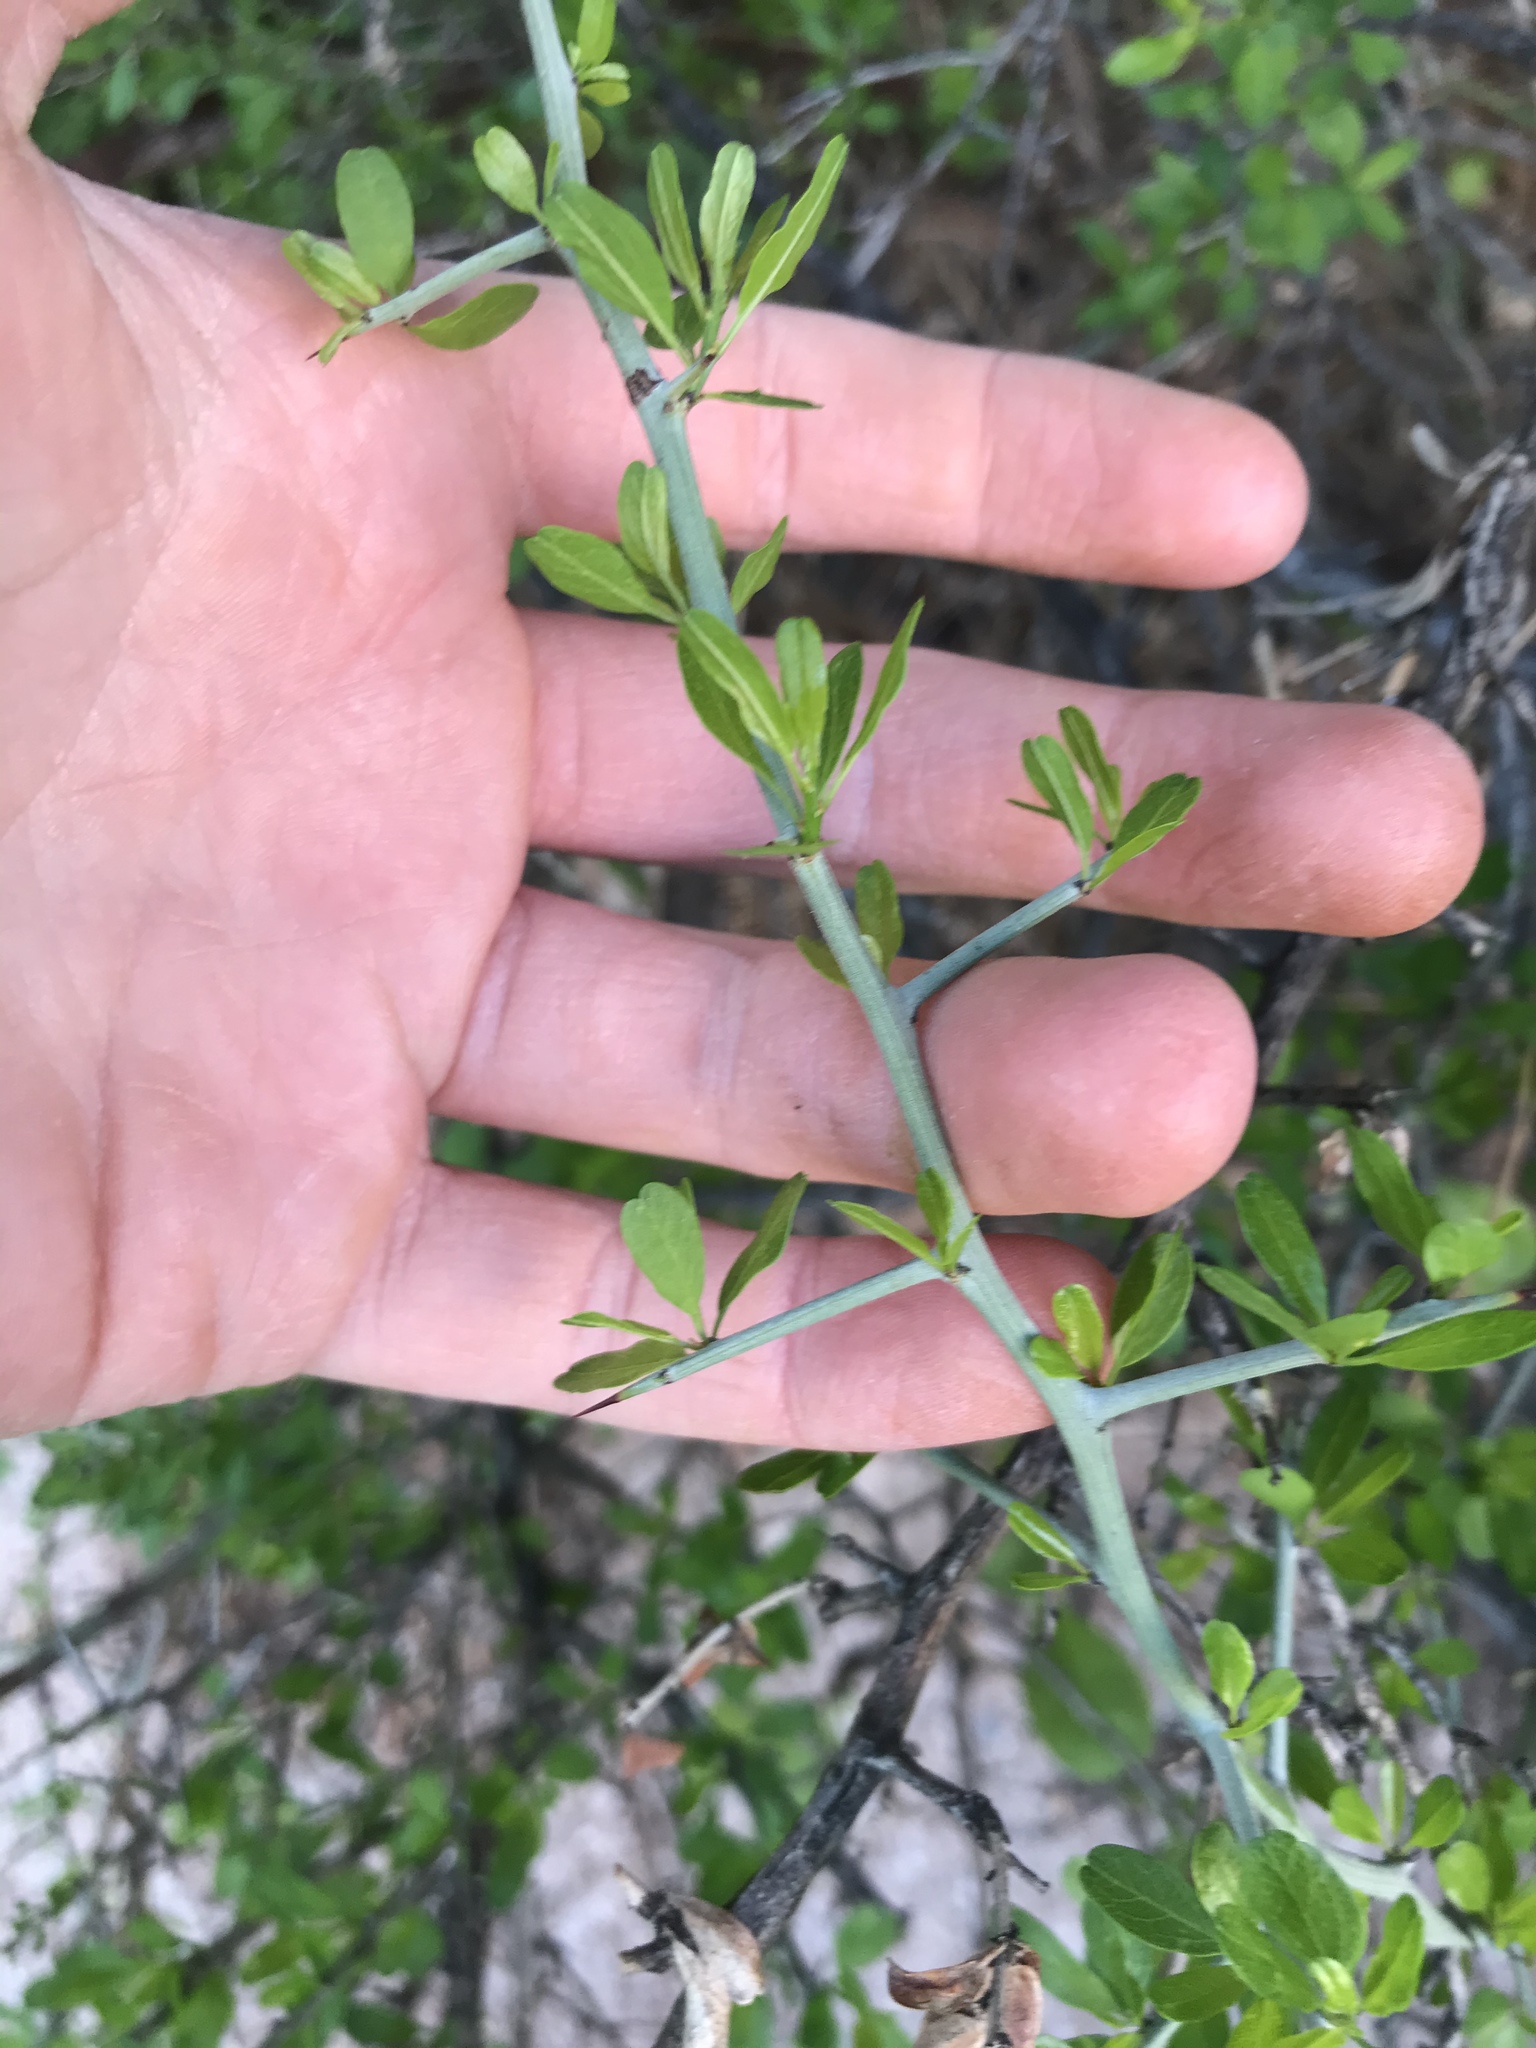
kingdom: Plantae
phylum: Tracheophyta
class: Magnoliopsida
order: Rosales
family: Rhamnaceae
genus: Sarcomphalus
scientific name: Sarcomphalus obtusifolius
